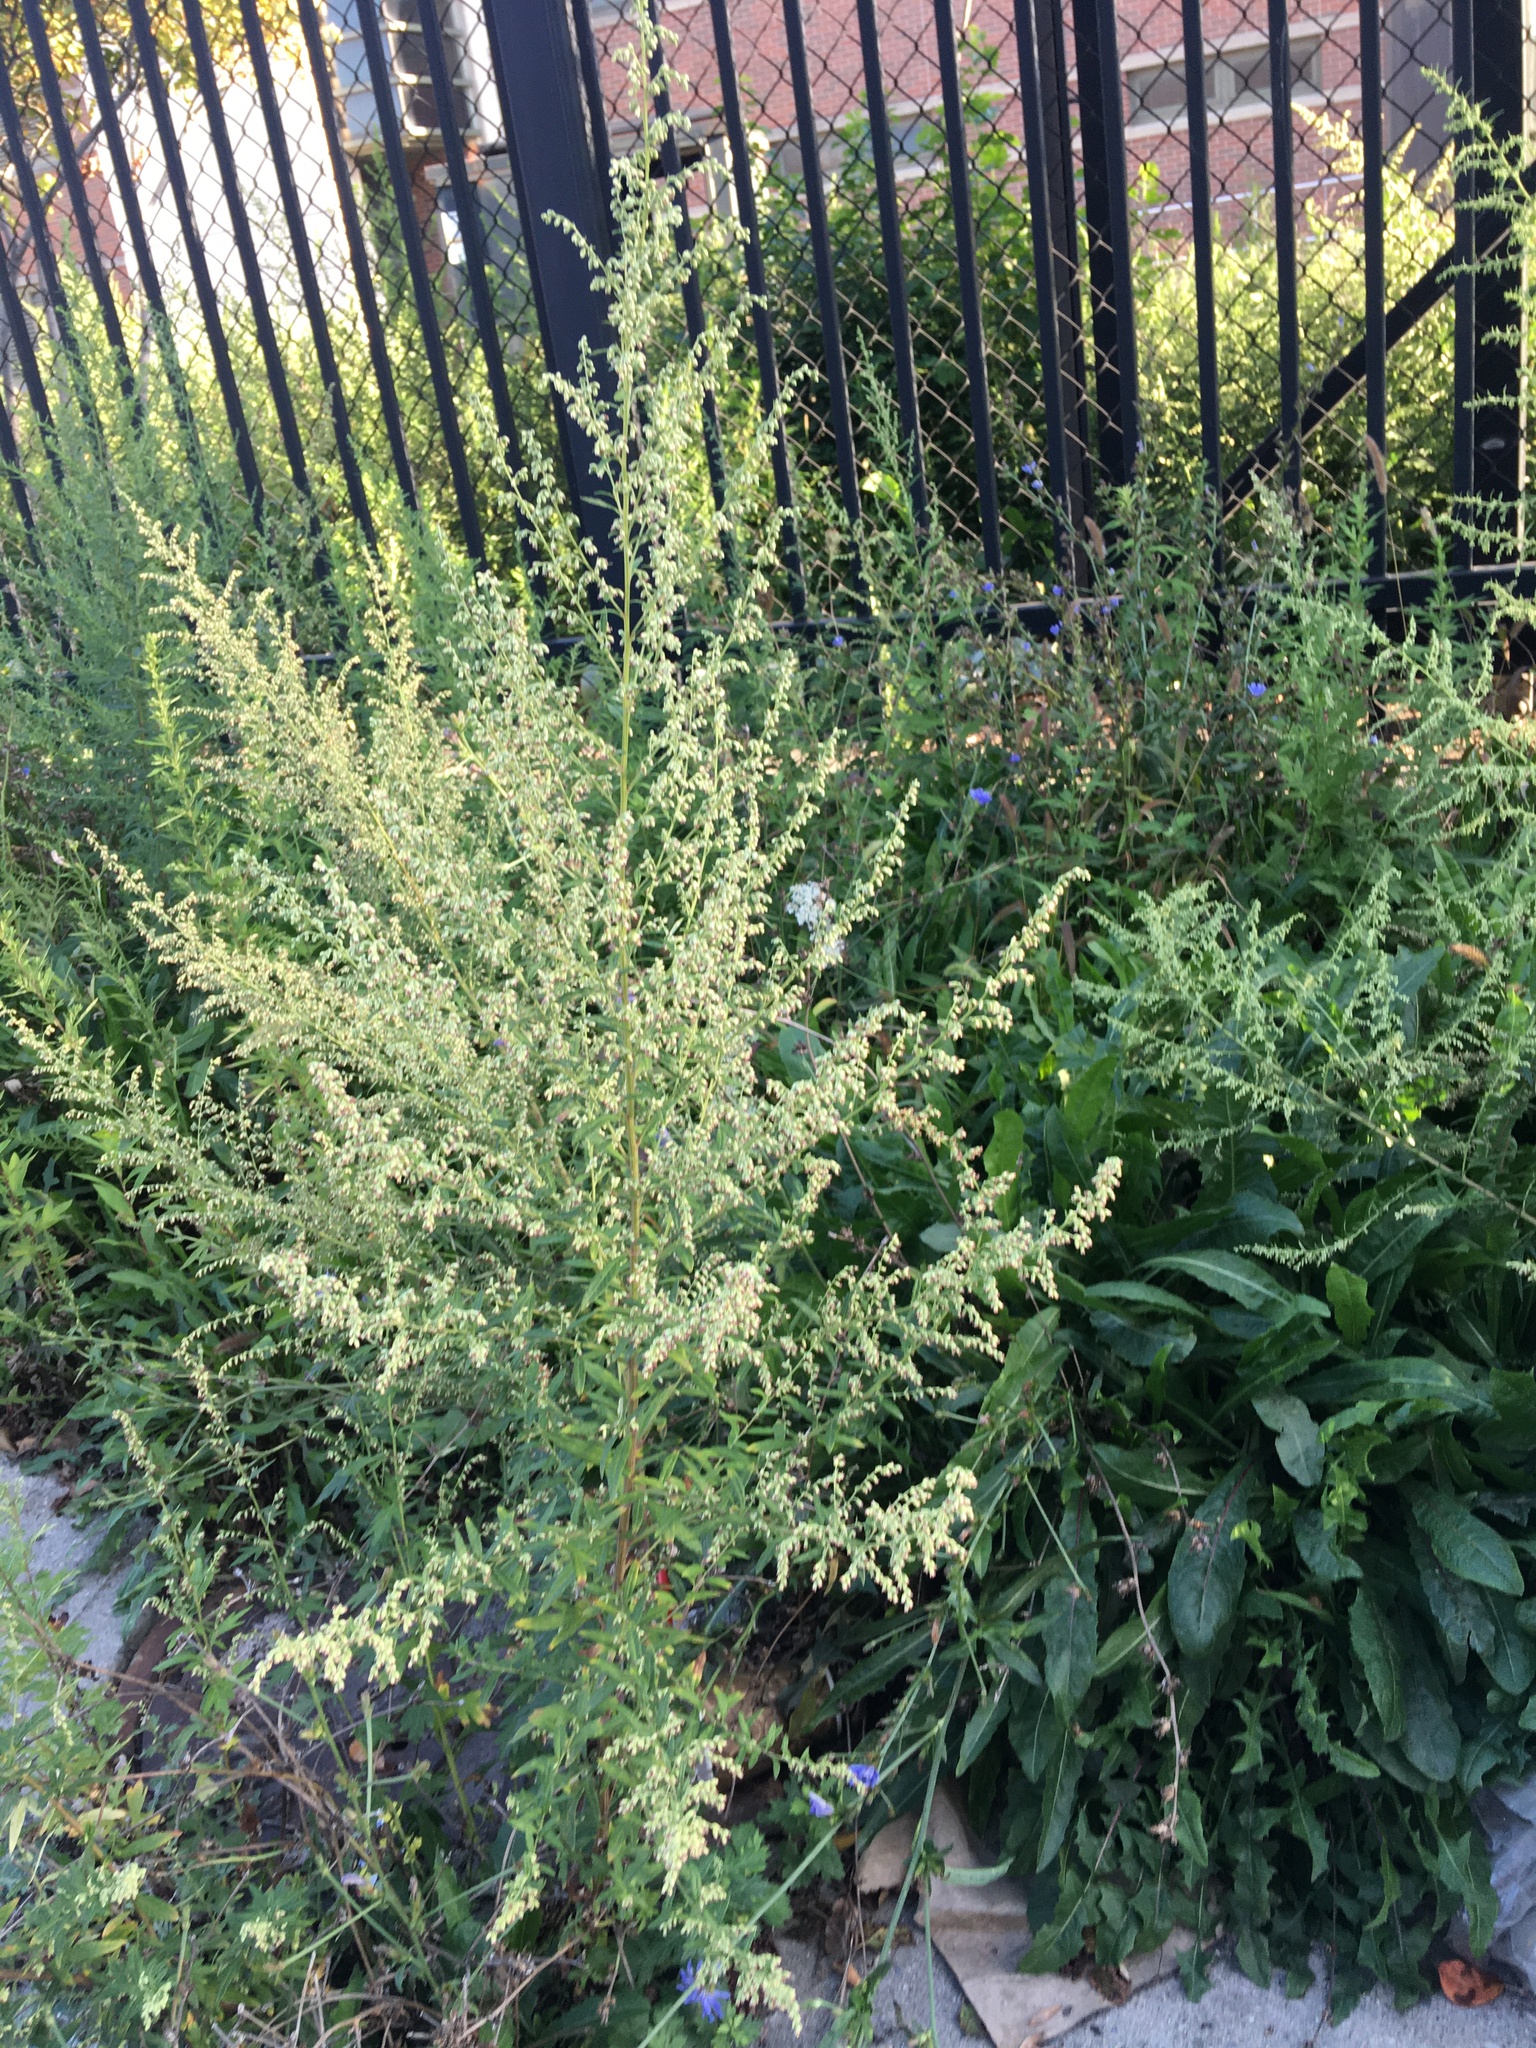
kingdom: Plantae
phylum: Tracheophyta
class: Magnoliopsida
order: Asterales
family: Asteraceae
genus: Artemisia
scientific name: Artemisia vulgaris
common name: Mugwort
